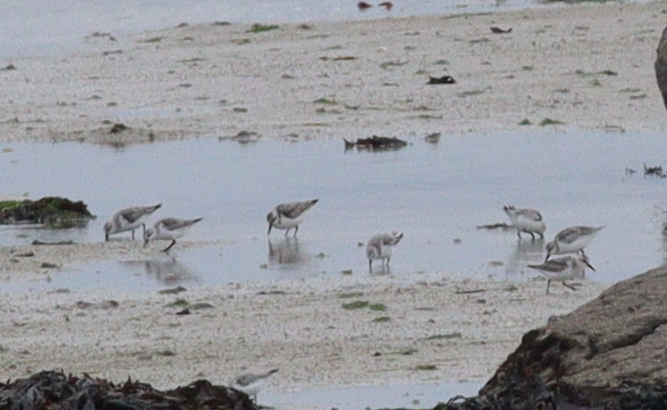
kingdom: Animalia
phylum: Chordata
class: Aves
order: Charadriiformes
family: Scolopacidae
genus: Calidris
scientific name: Calidris alba
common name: Sanderling
